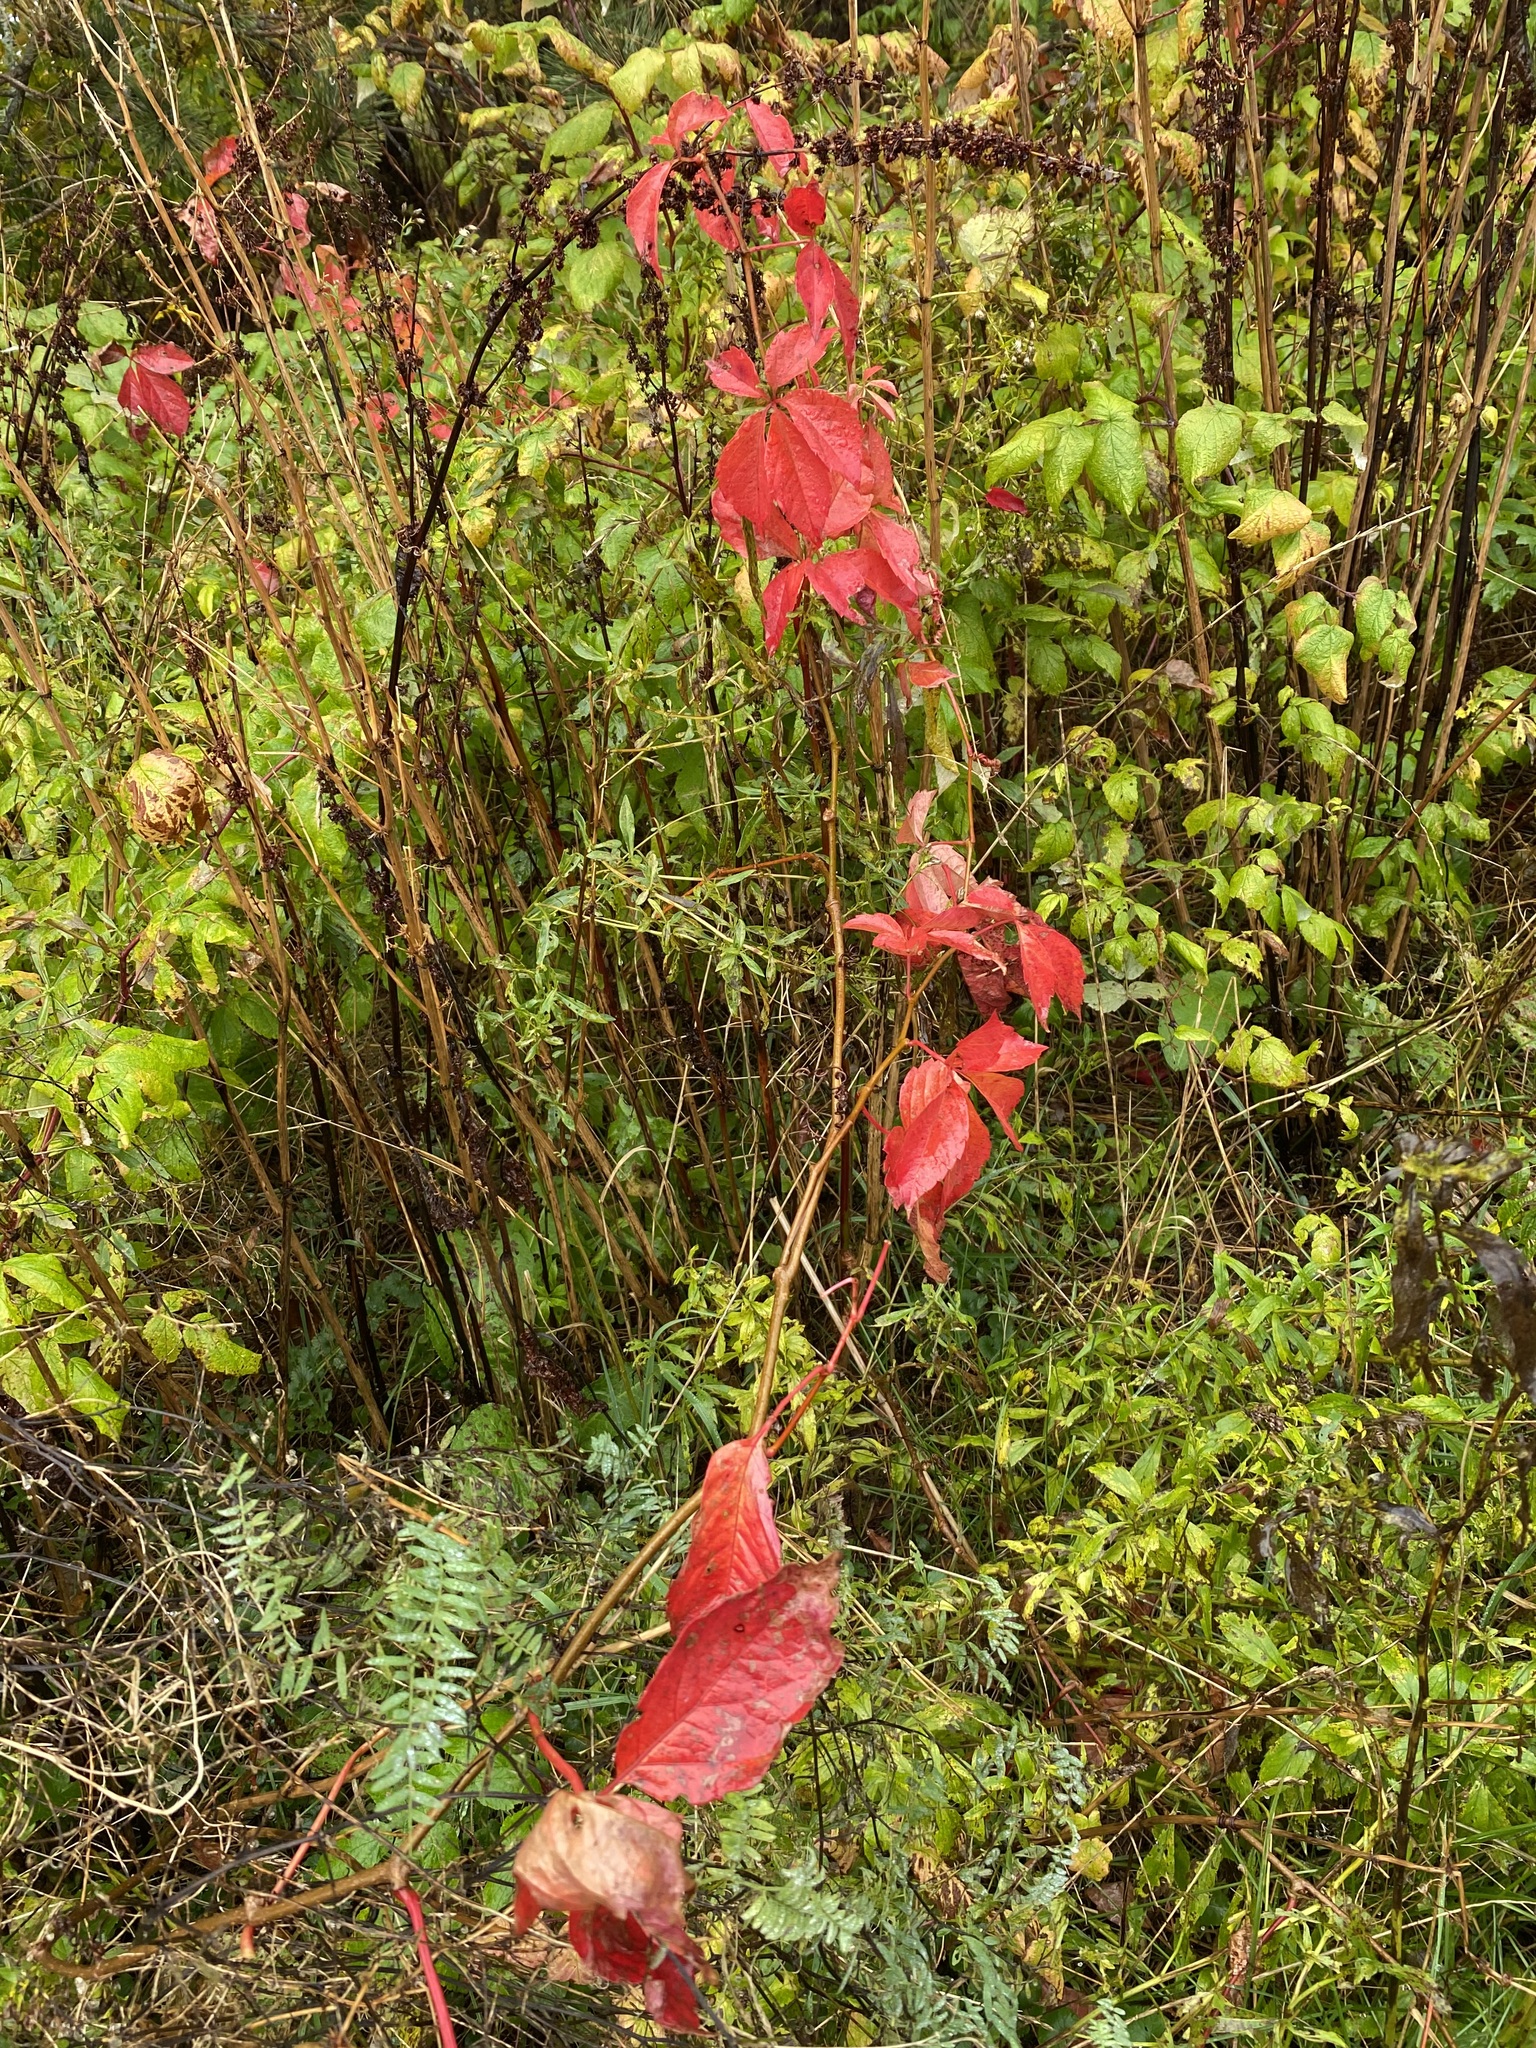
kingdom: Plantae
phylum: Tracheophyta
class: Magnoliopsida
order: Vitales
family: Vitaceae
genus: Parthenocissus
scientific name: Parthenocissus quinquefolia
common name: Virginia-creeper
